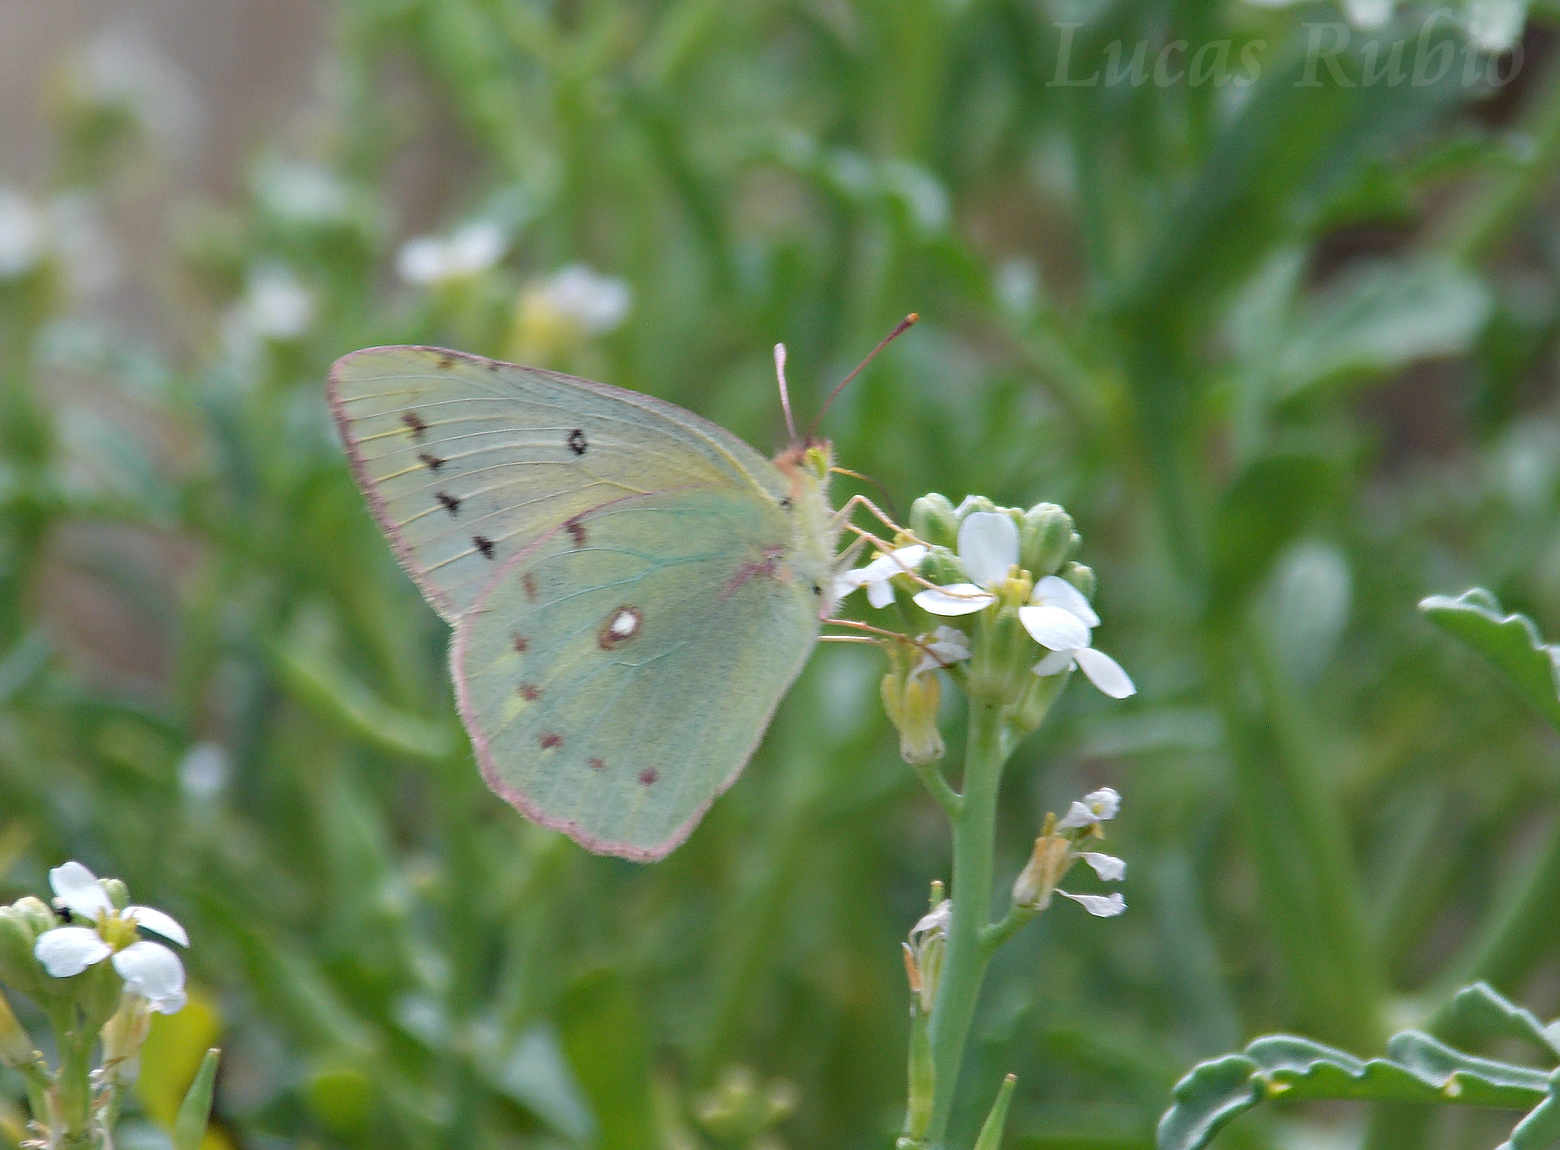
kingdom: Animalia
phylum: Arthropoda
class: Insecta
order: Lepidoptera
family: Pieridae
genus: Colias
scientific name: Colias lesbia
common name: Lesbia clouded yellow
